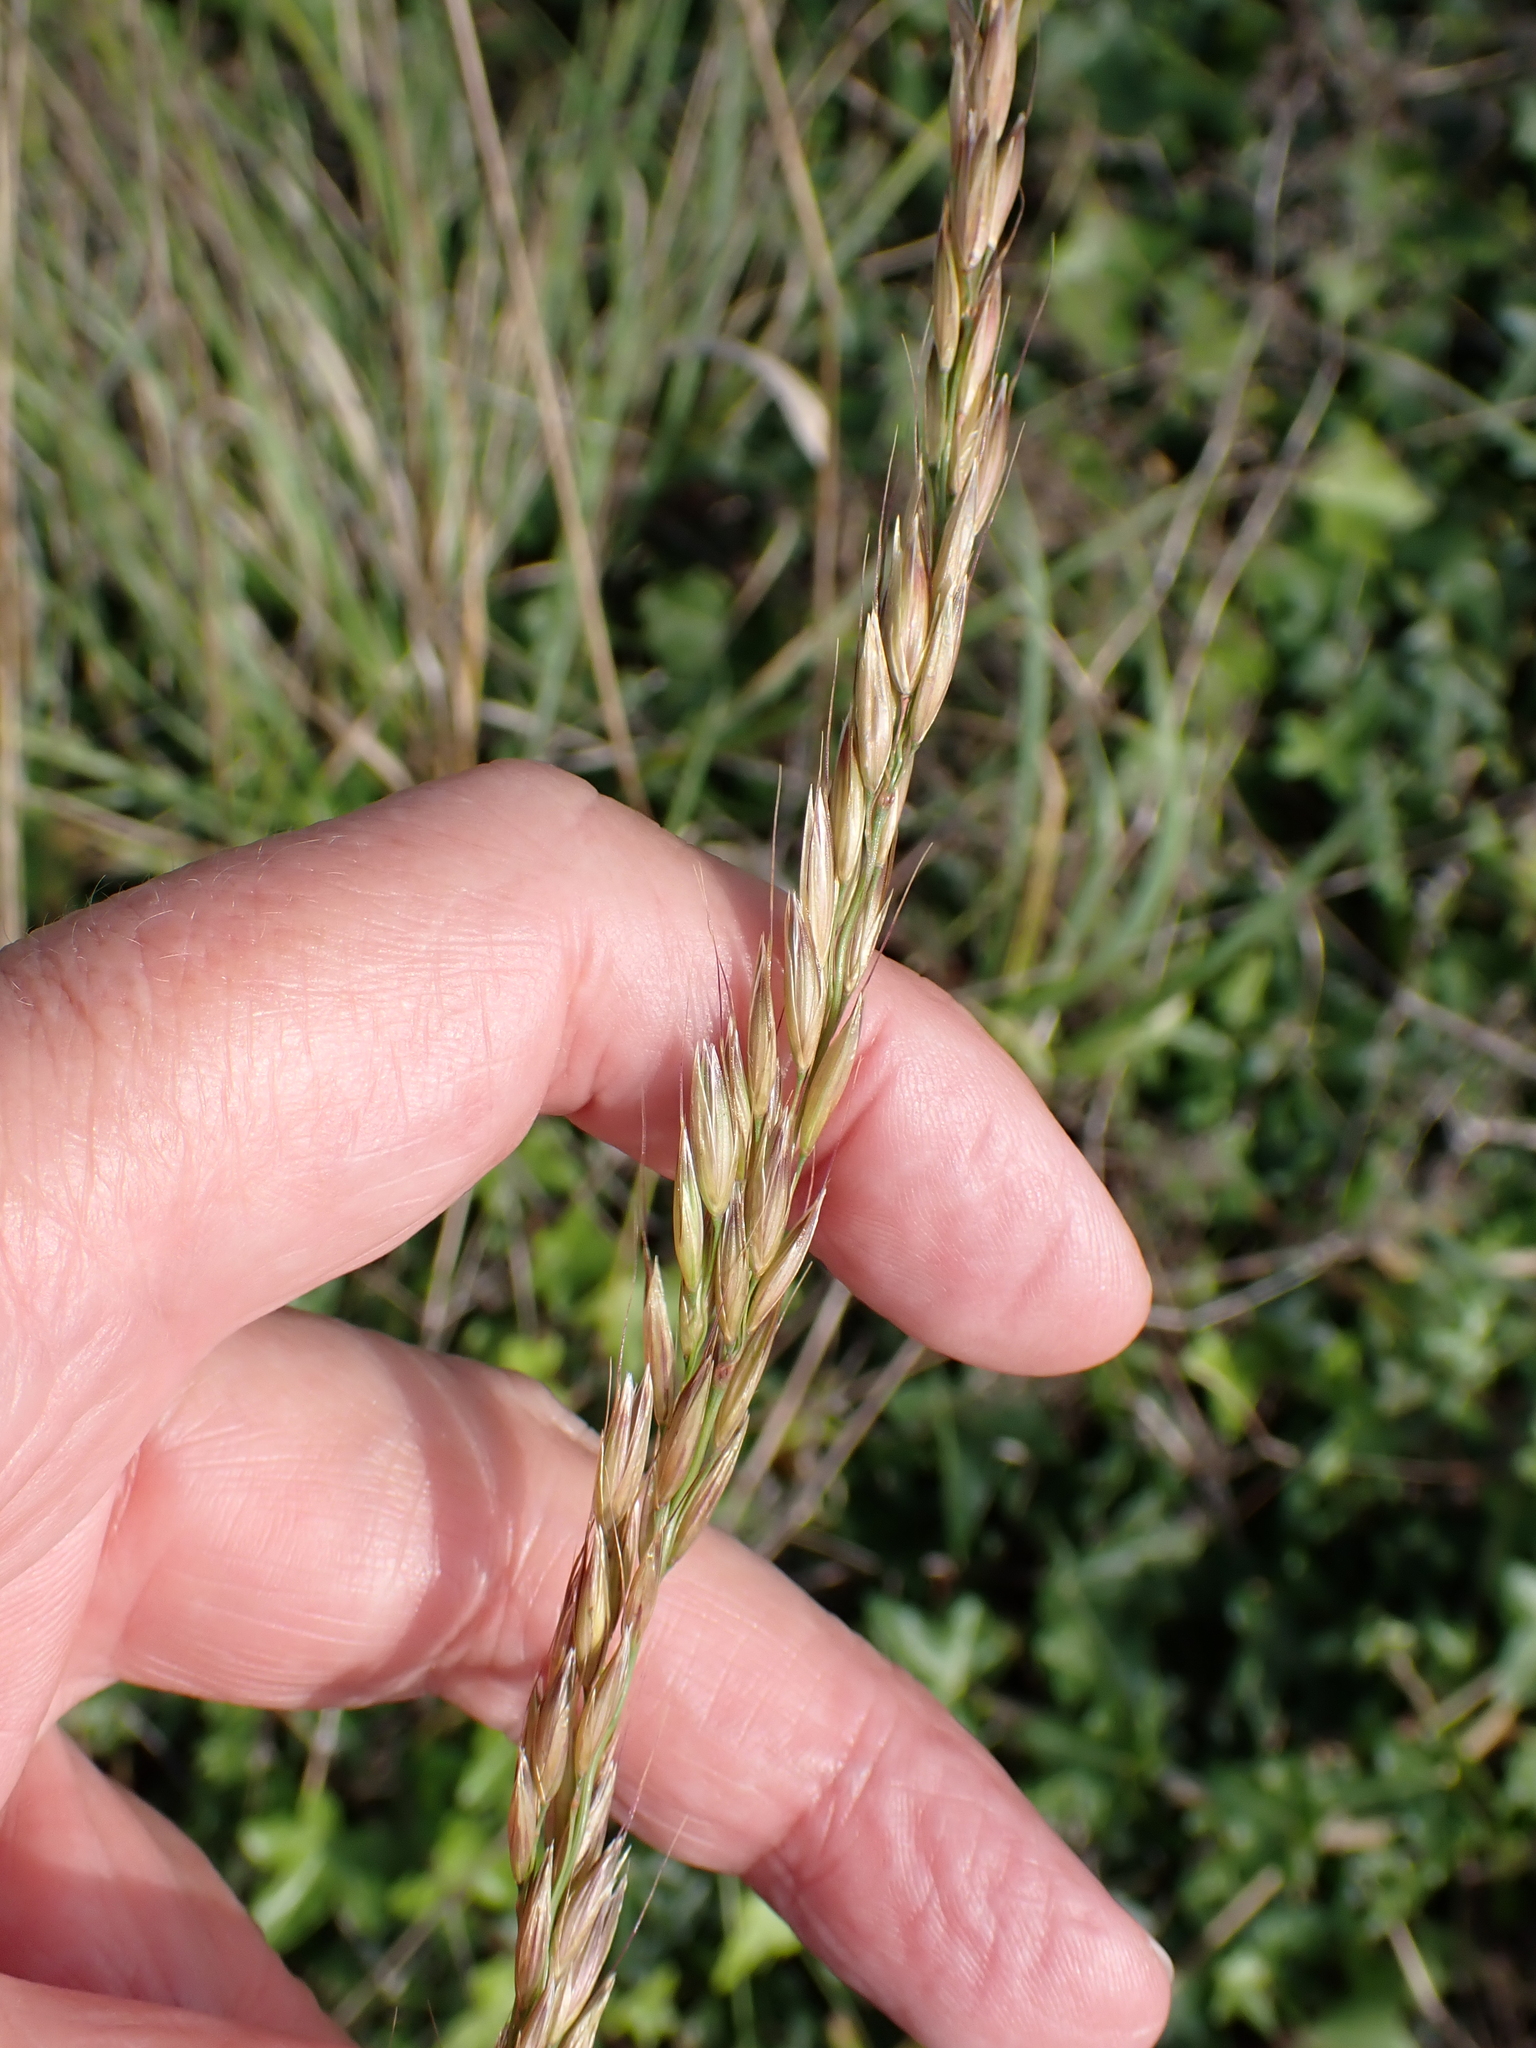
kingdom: Plantae
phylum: Tracheophyta
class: Liliopsida
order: Poales
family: Poaceae
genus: Arrhenatherum
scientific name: Arrhenatherum elatius
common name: Tall oatgrass
